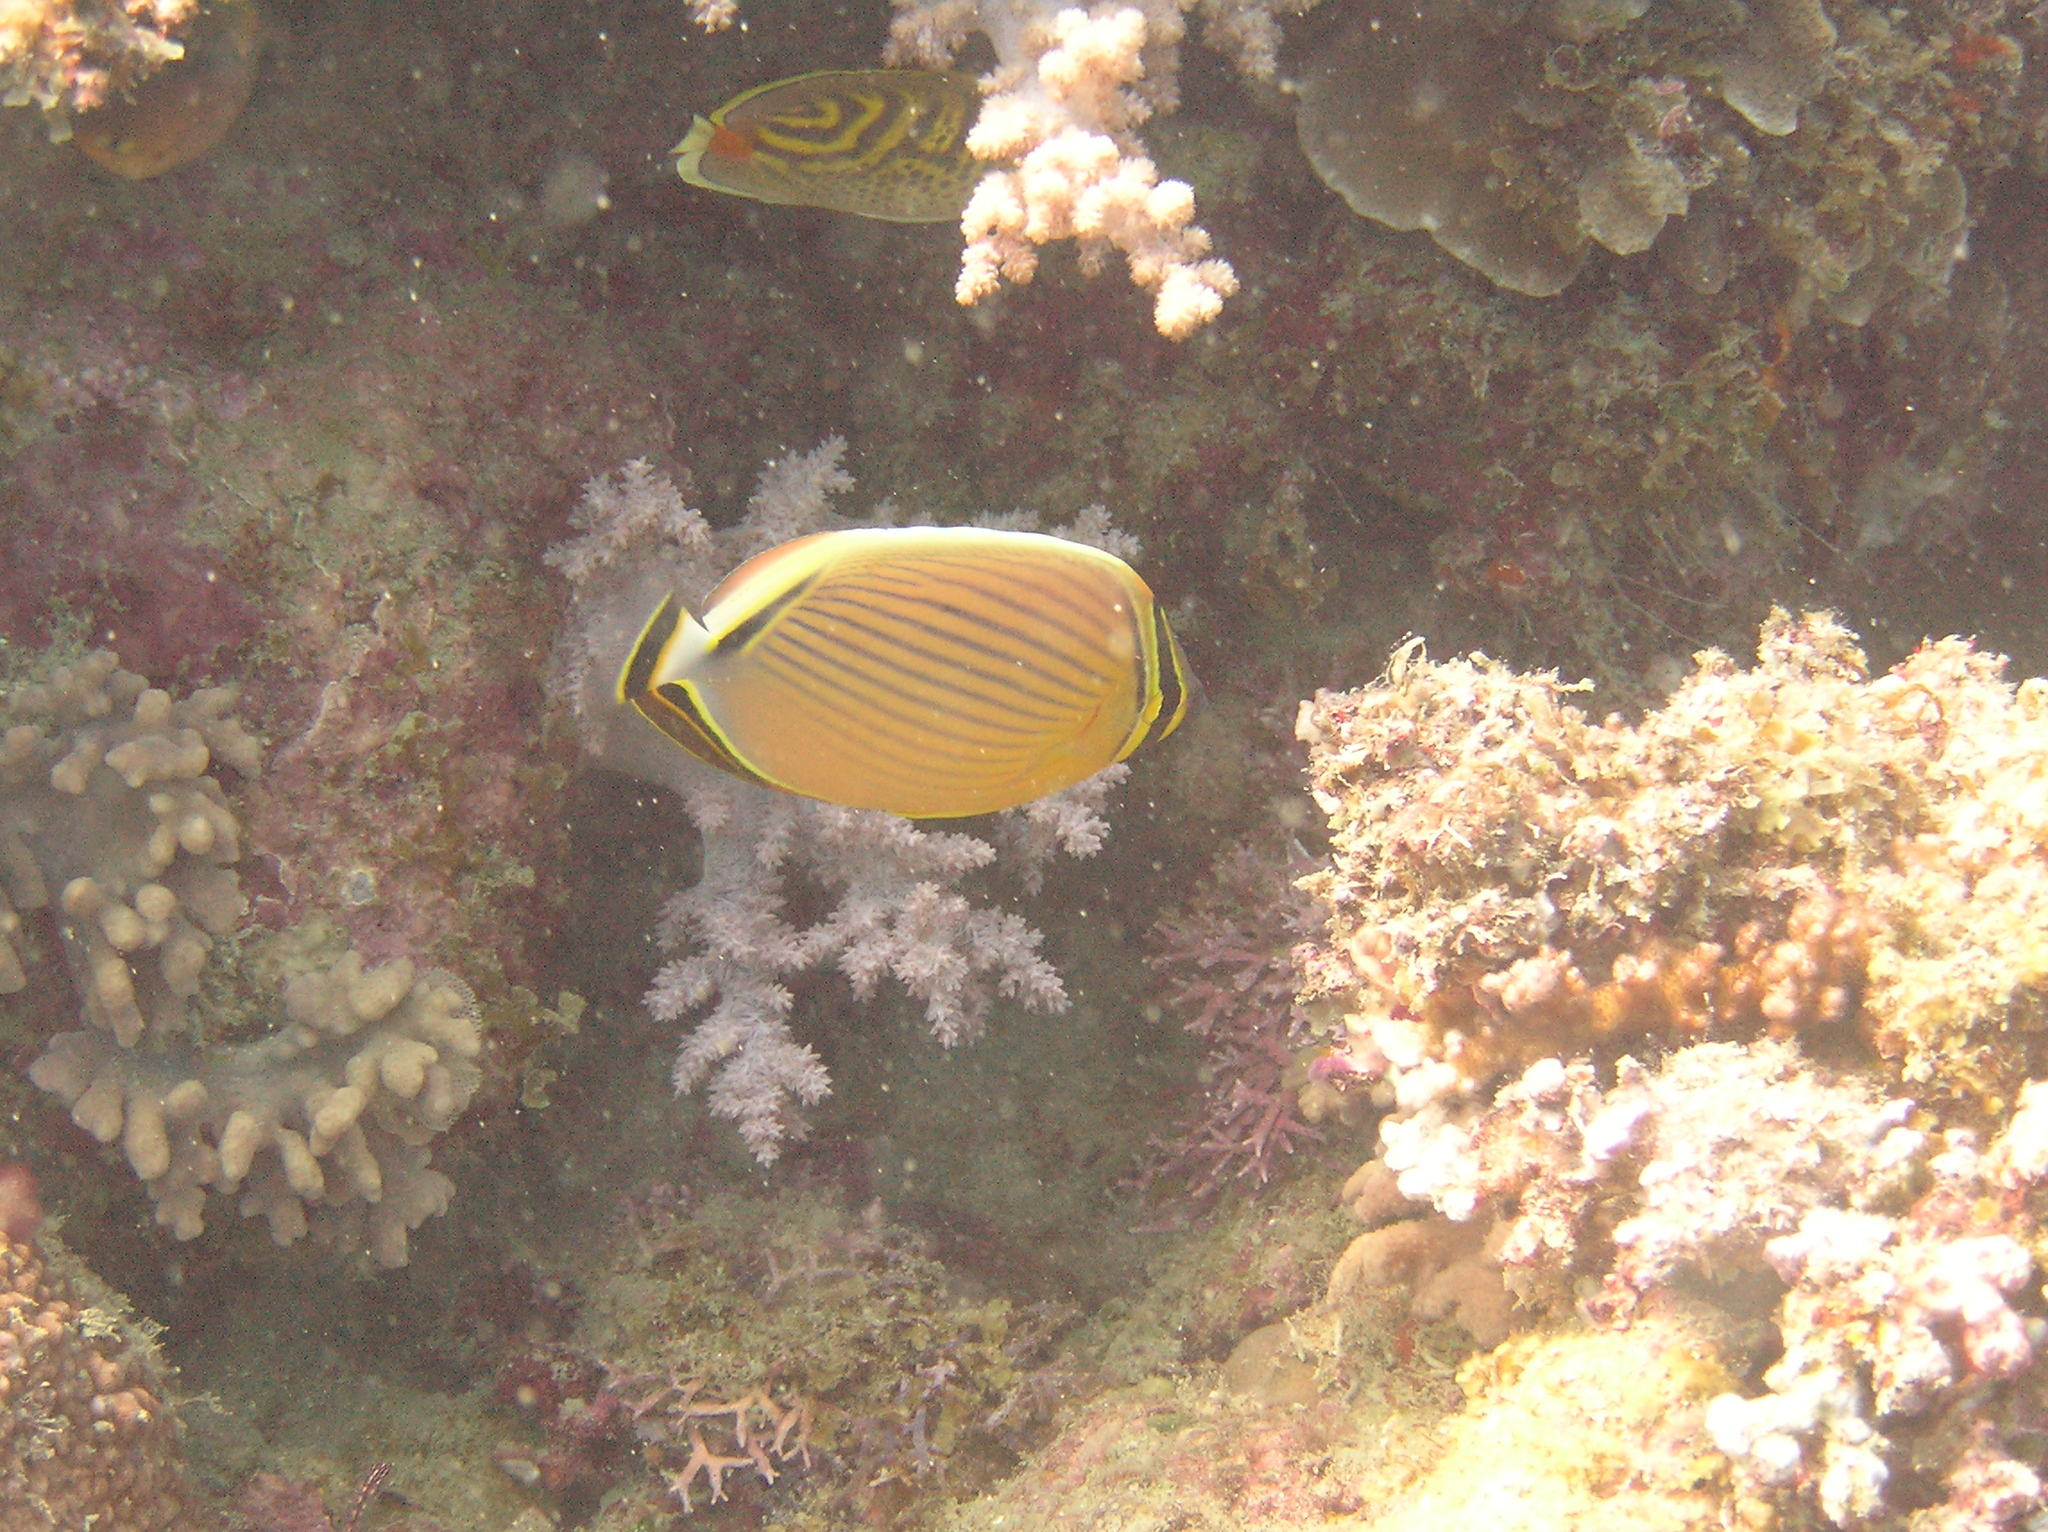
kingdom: Animalia
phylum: Chordata
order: Perciformes
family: Chaetodontidae
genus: Chaetodon
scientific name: Chaetodon
